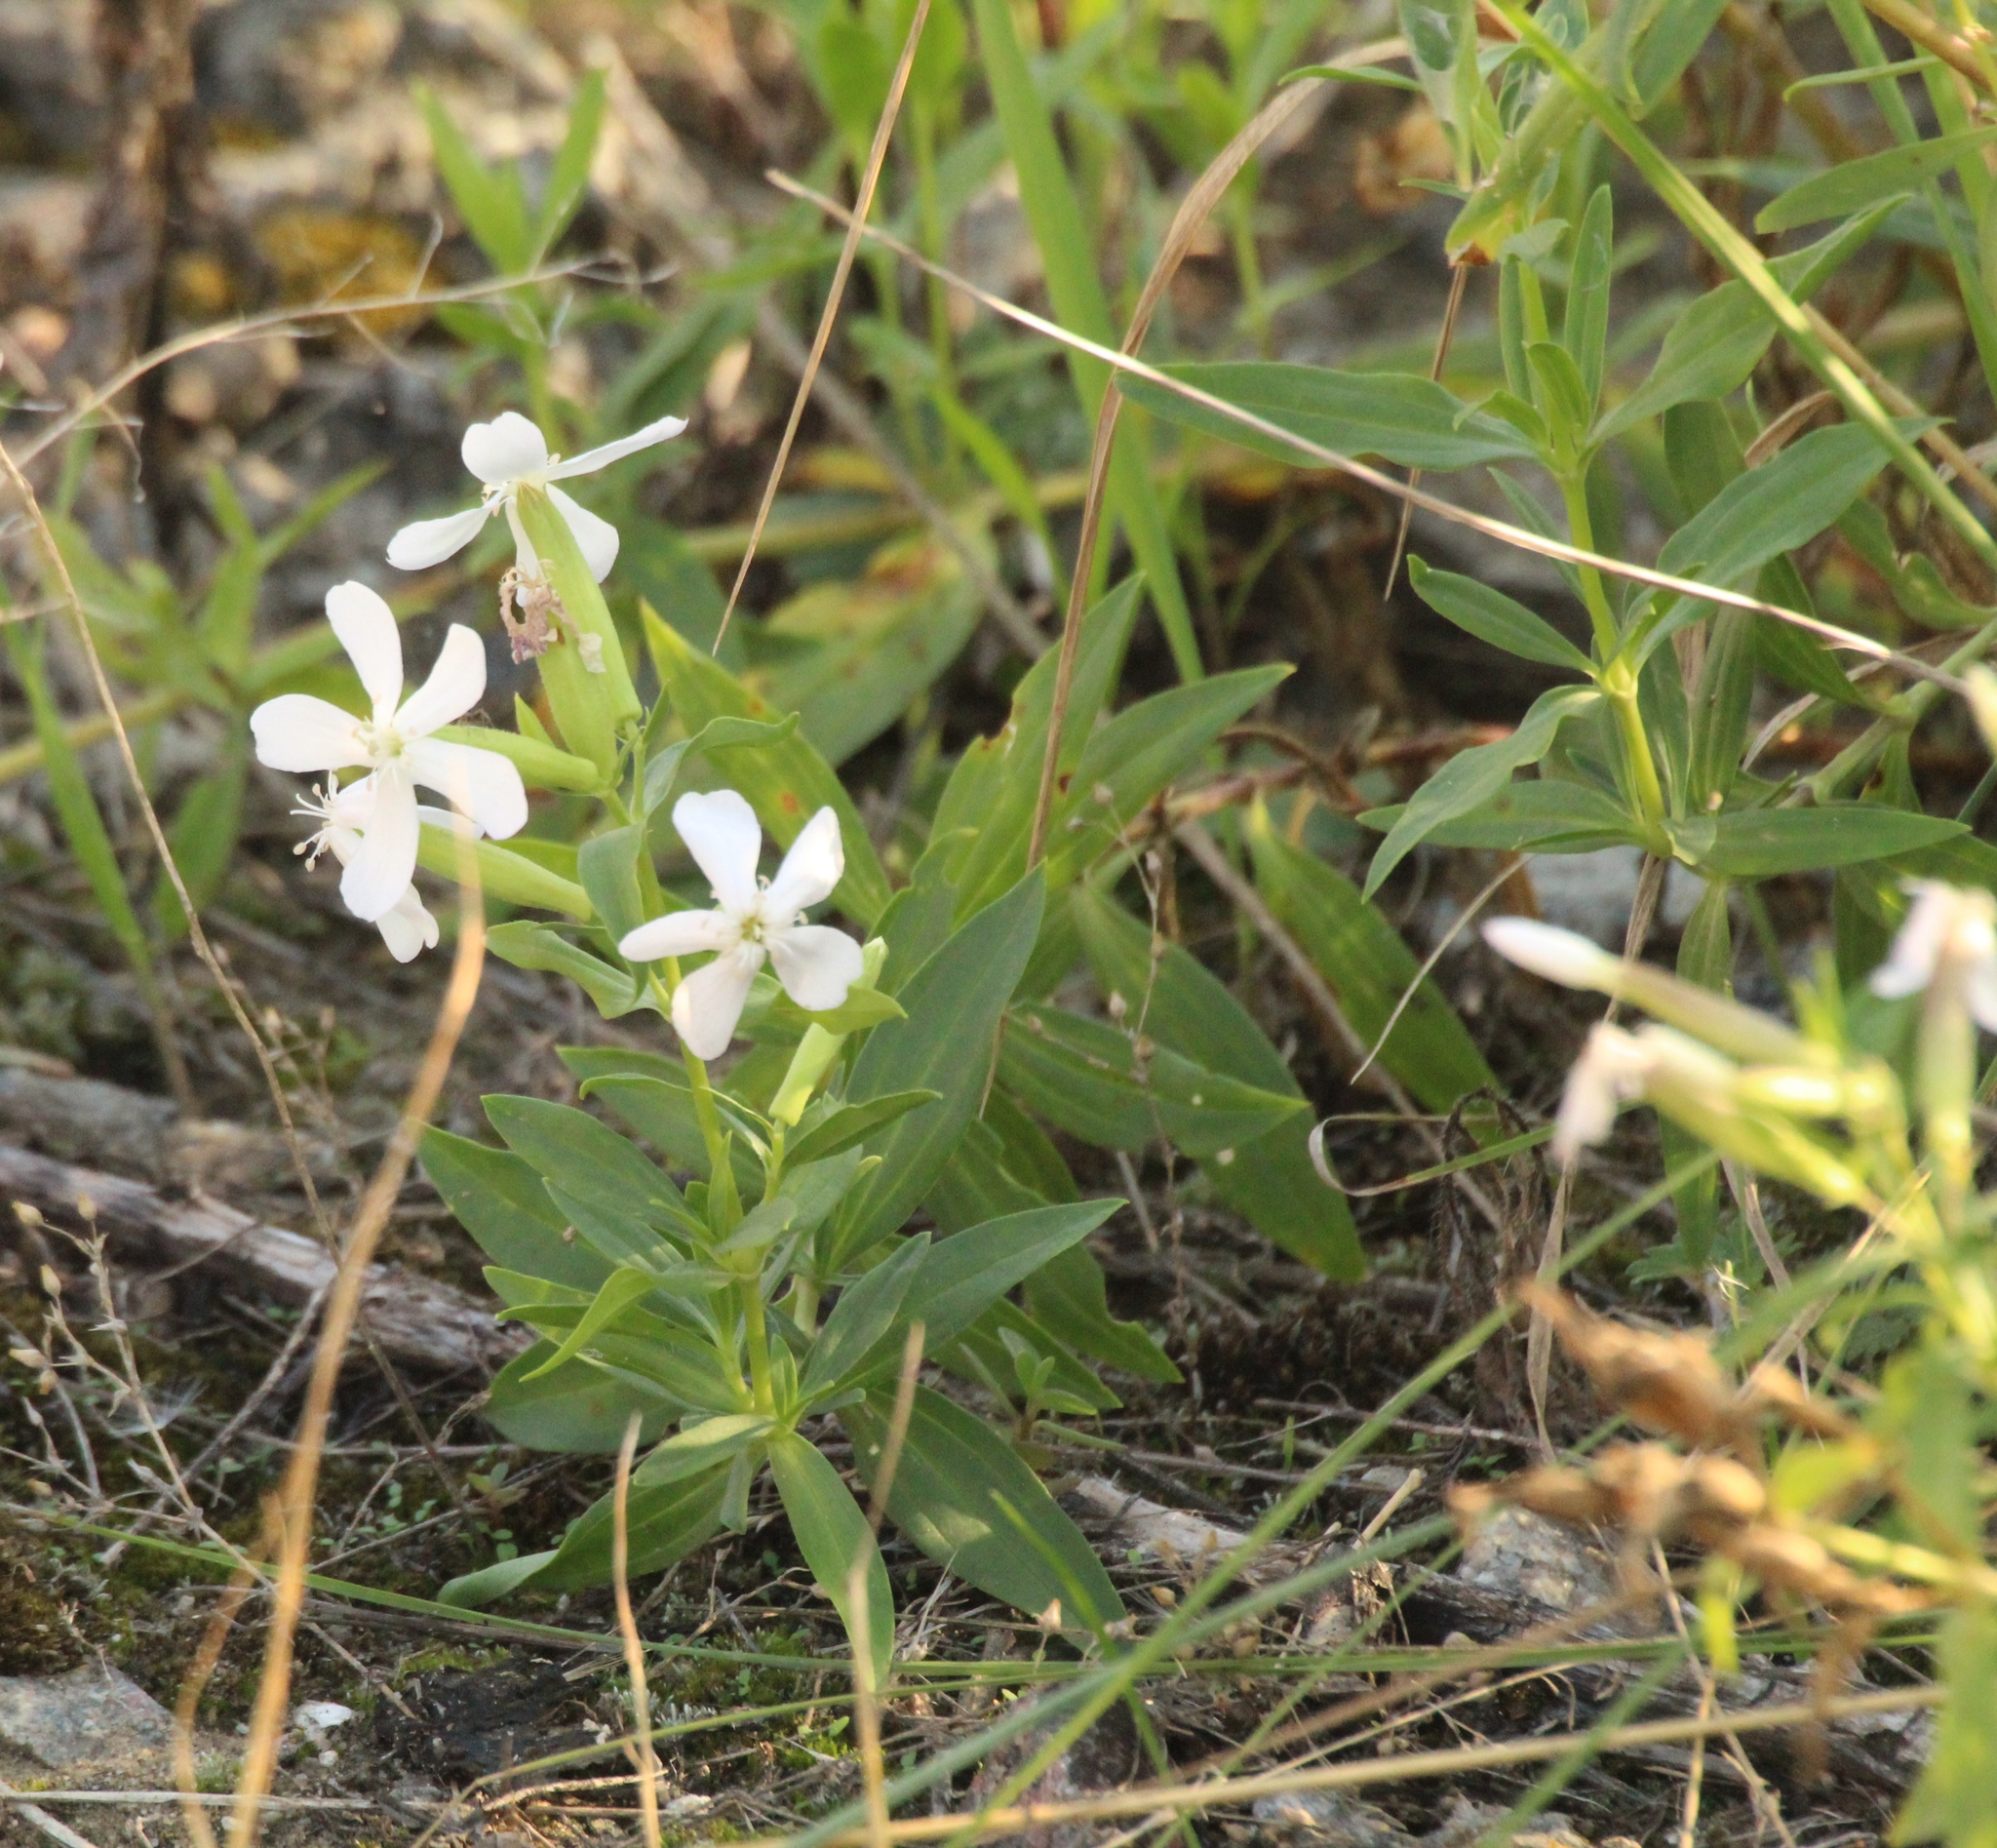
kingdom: Plantae
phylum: Tracheophyta
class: Magnoliopsida
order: Caryophyllales
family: Caryophyllaceae
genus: Saponaria
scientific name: Saponaria officinalis
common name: Soapwort
